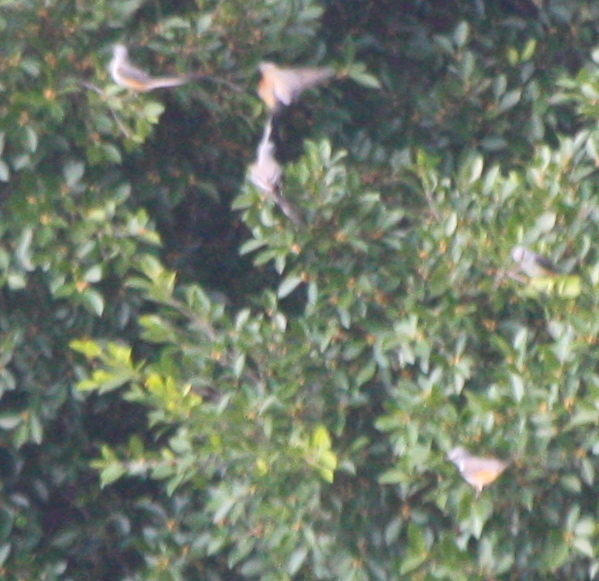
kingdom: Animalia
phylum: Chordata
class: Aves
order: Passeriformes
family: Tyrannidae
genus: Tyrannus
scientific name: Tyrannus forficatus
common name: Scissor-tailed flycatcher
